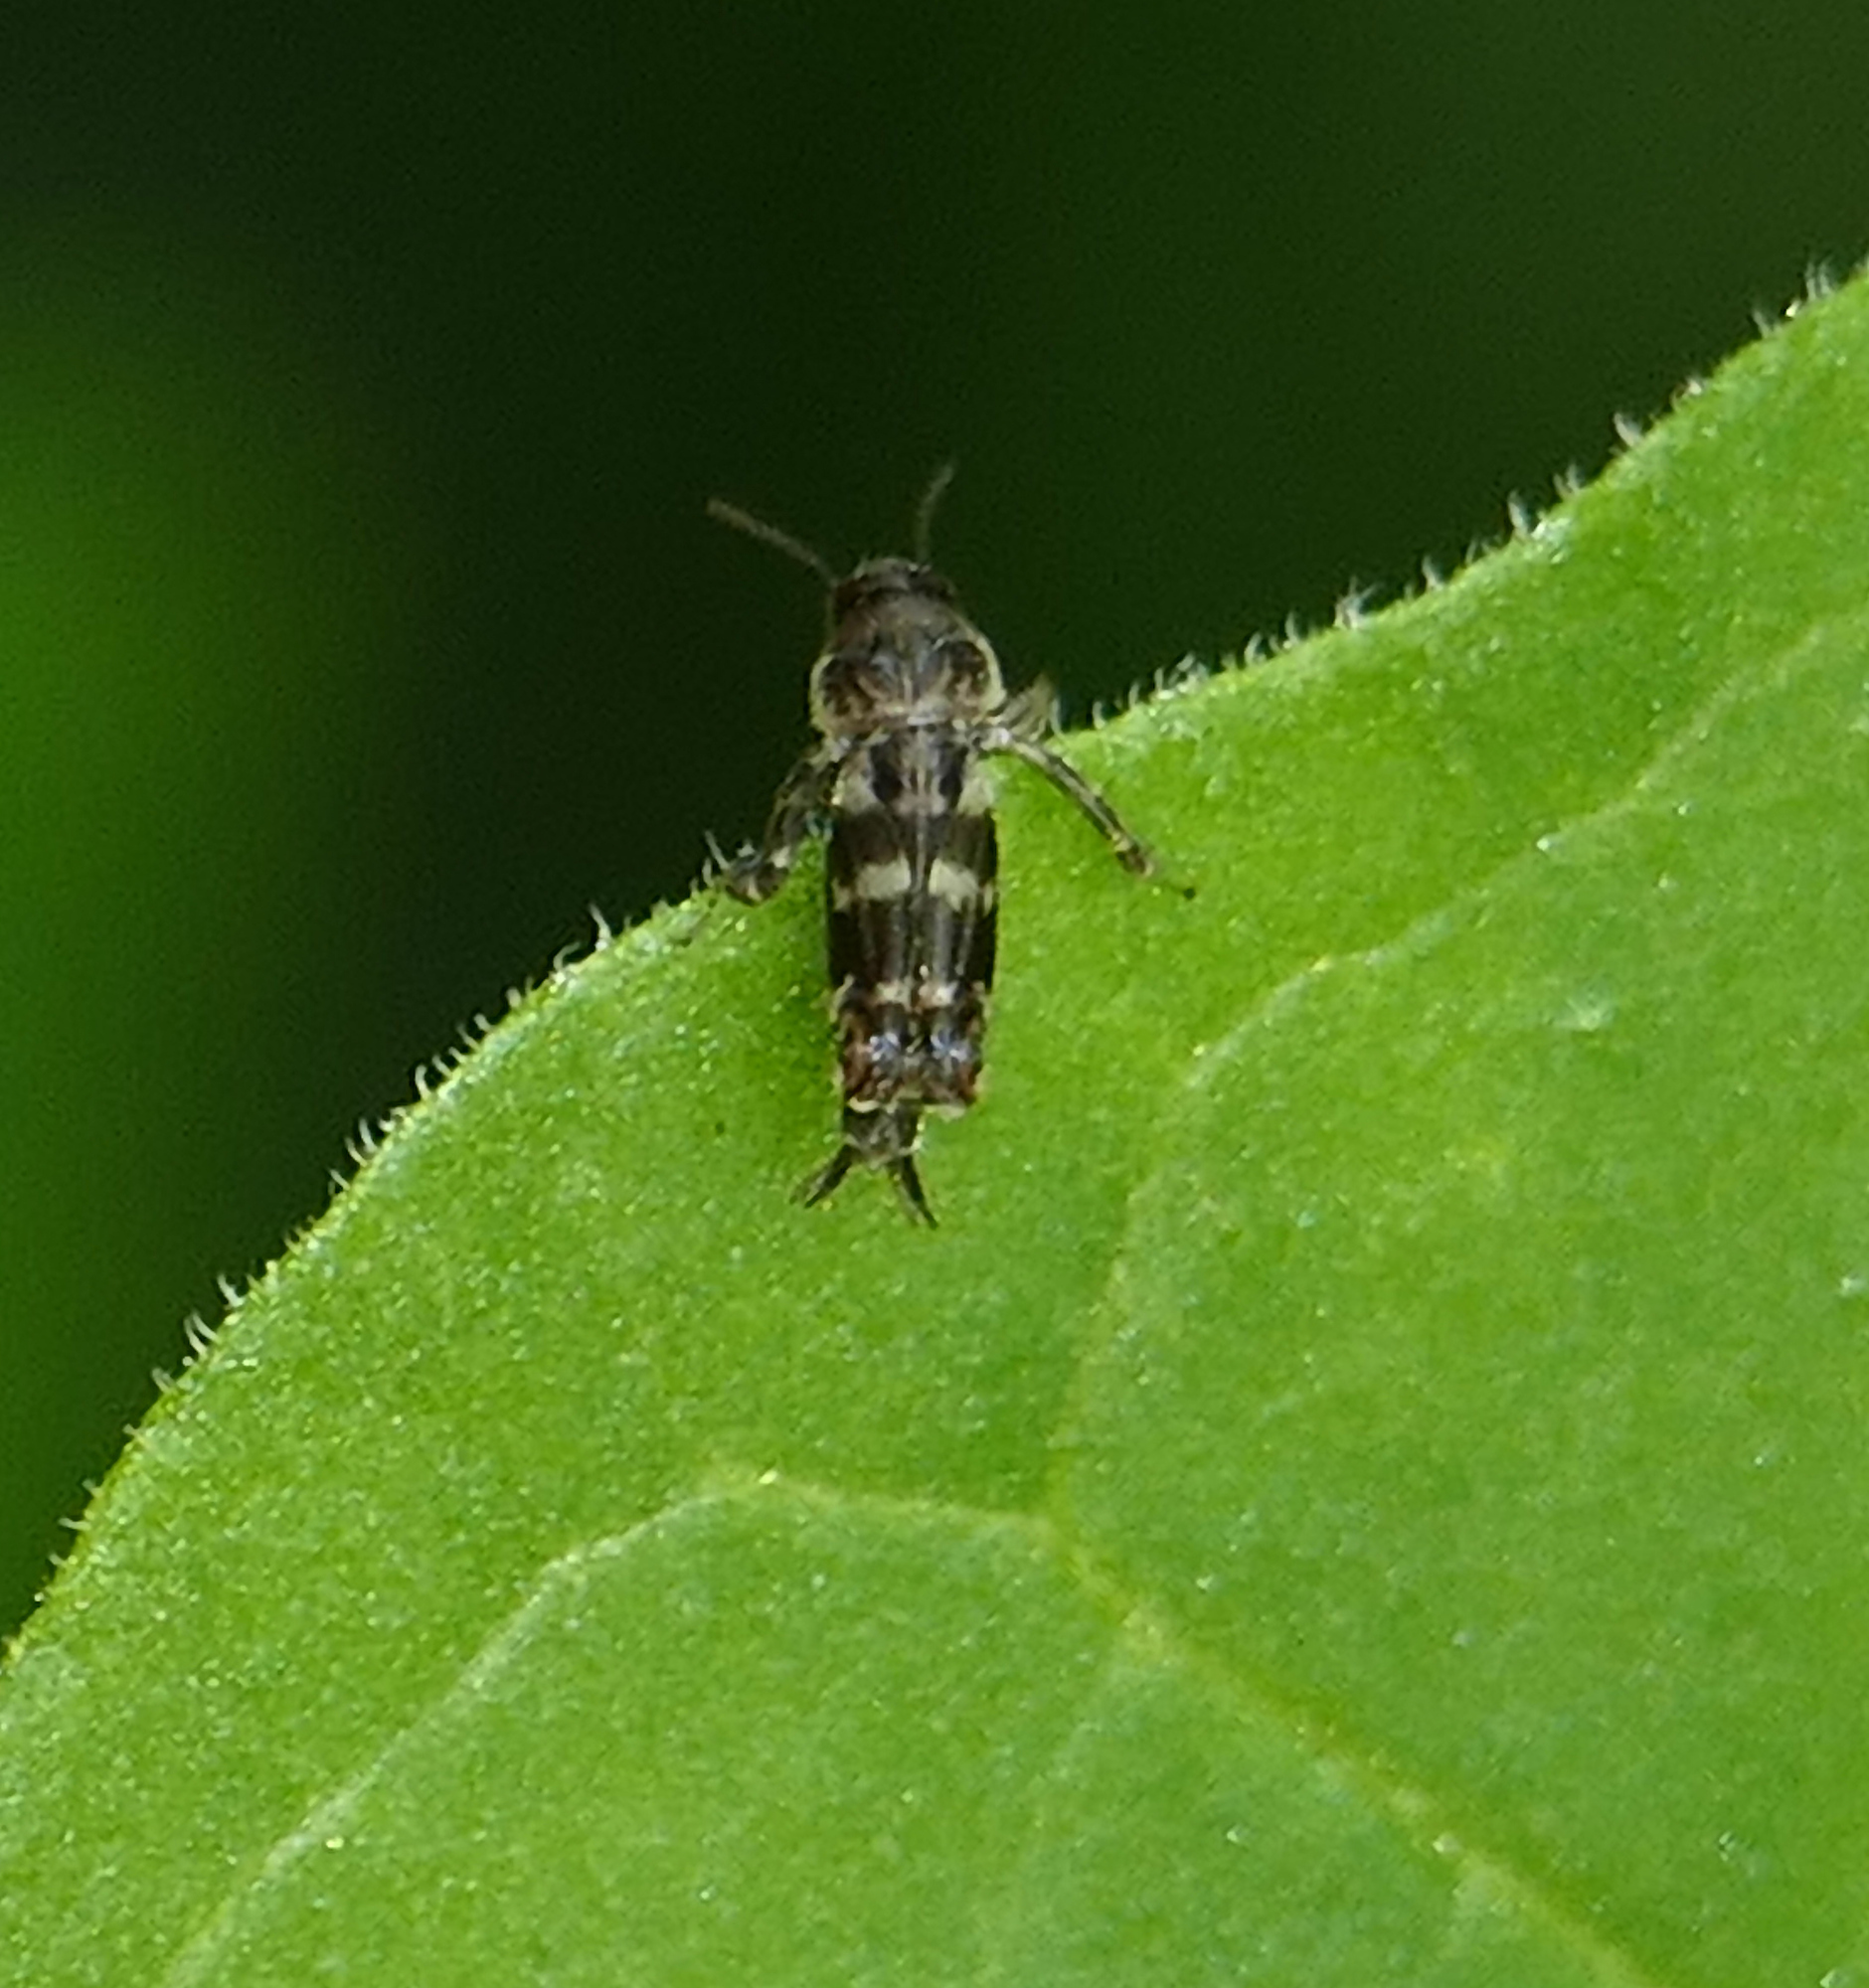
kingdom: Animalia
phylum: Arthropoda
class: Insecta
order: Orthoptera
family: Tridactylidae
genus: Ellipes
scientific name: Ellipes
